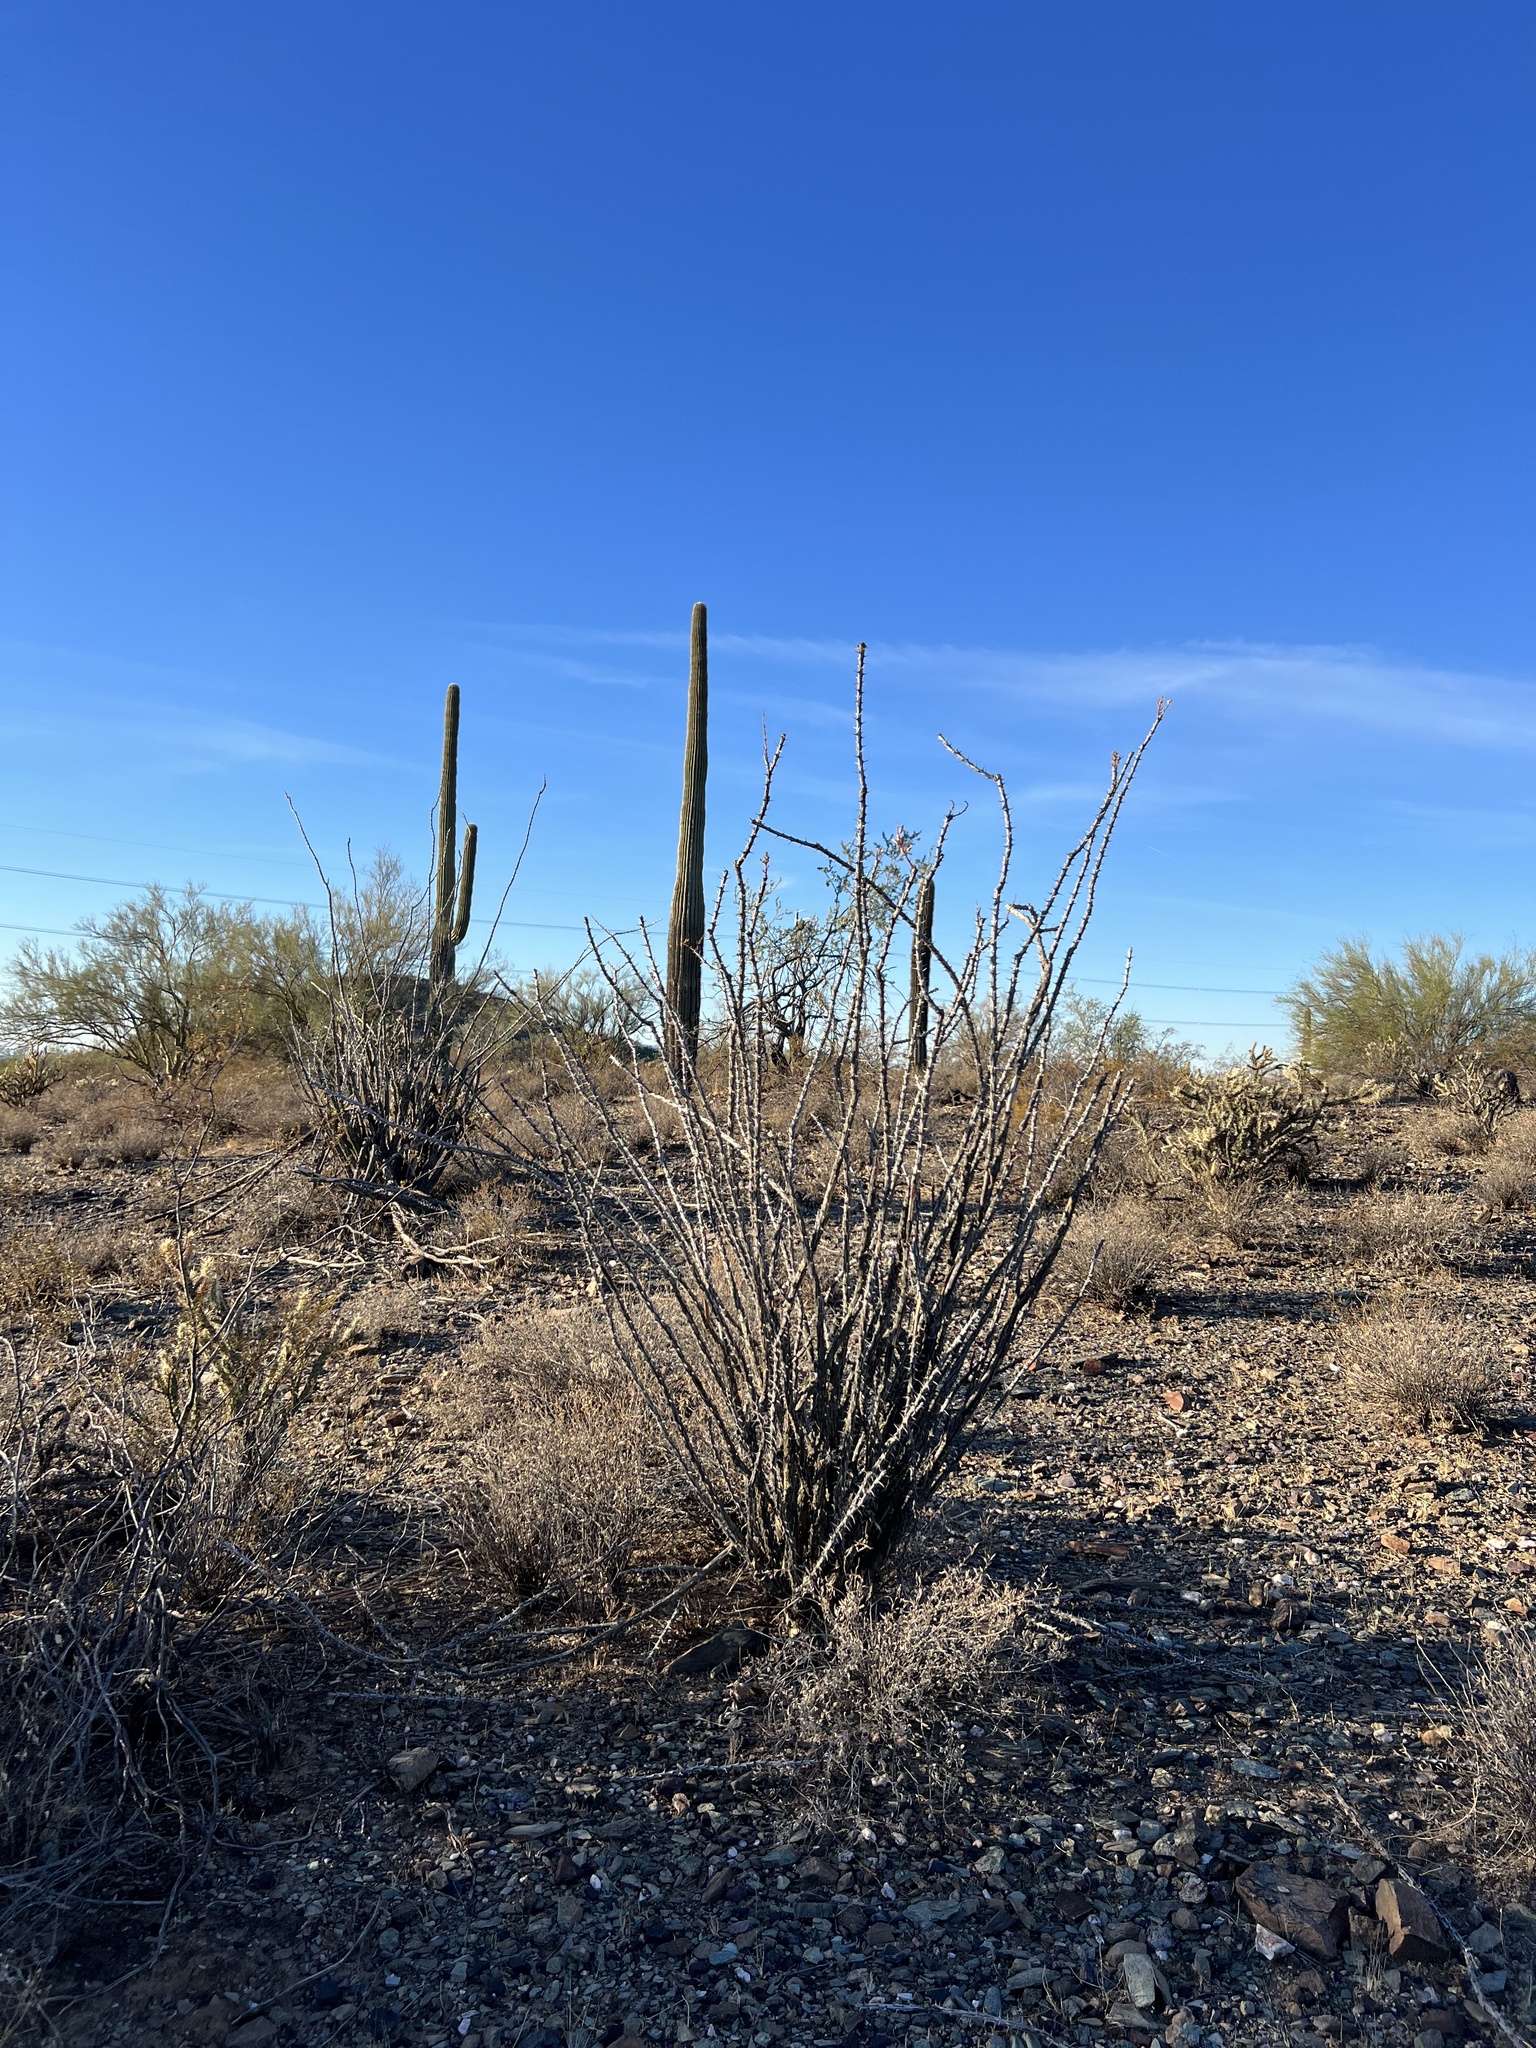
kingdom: Plantae
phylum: Tracheophyta
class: Magnoliopsida
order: Ericales
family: Fouquieriaceae
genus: Fouquieria
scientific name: Fouquieria splendens
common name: Vine-cactus
